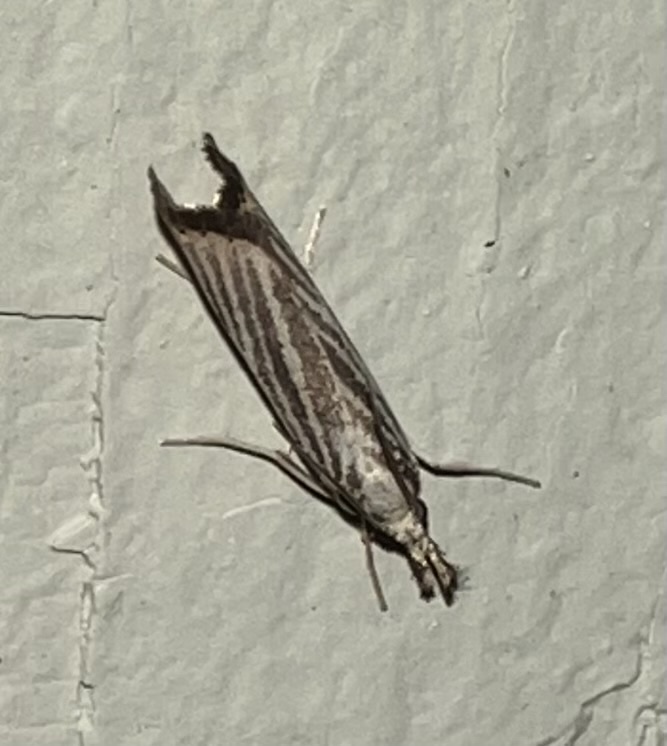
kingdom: Animalia
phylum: Arthropoda
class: Insecta
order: Lepidoptera
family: Crambidae
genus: Agriphila
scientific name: Agriphila vulgivagellus
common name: Vagabond crambus moth
